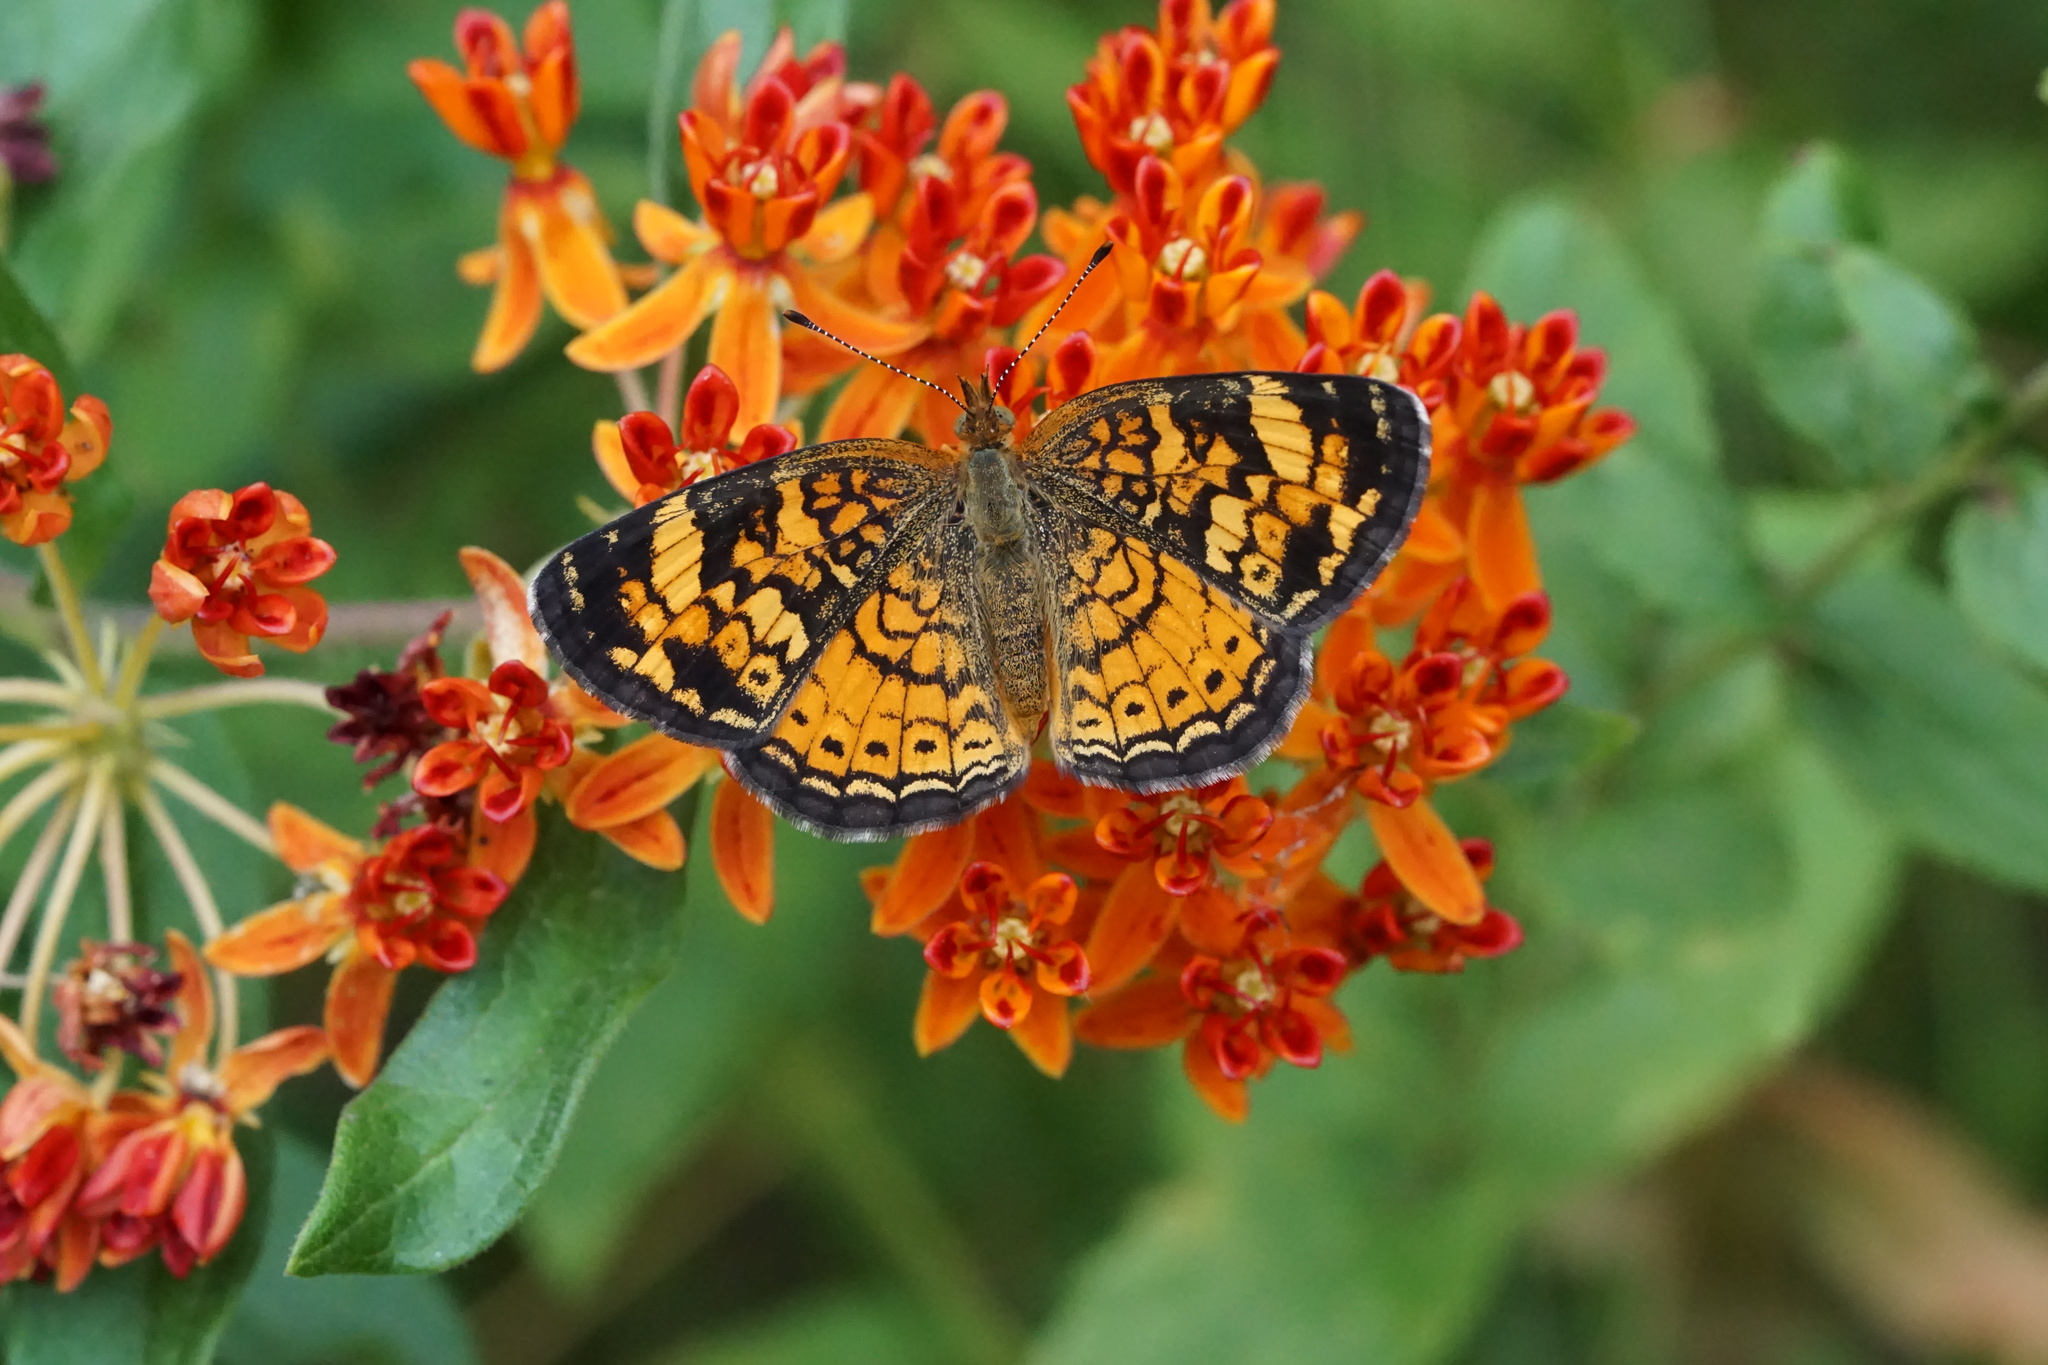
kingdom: Animalia
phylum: Arthropoda
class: Insecta
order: Lepidoptera
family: Nymphalidae
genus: Phyciodes
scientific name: Phyciodes tharos
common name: Pearl crescent
